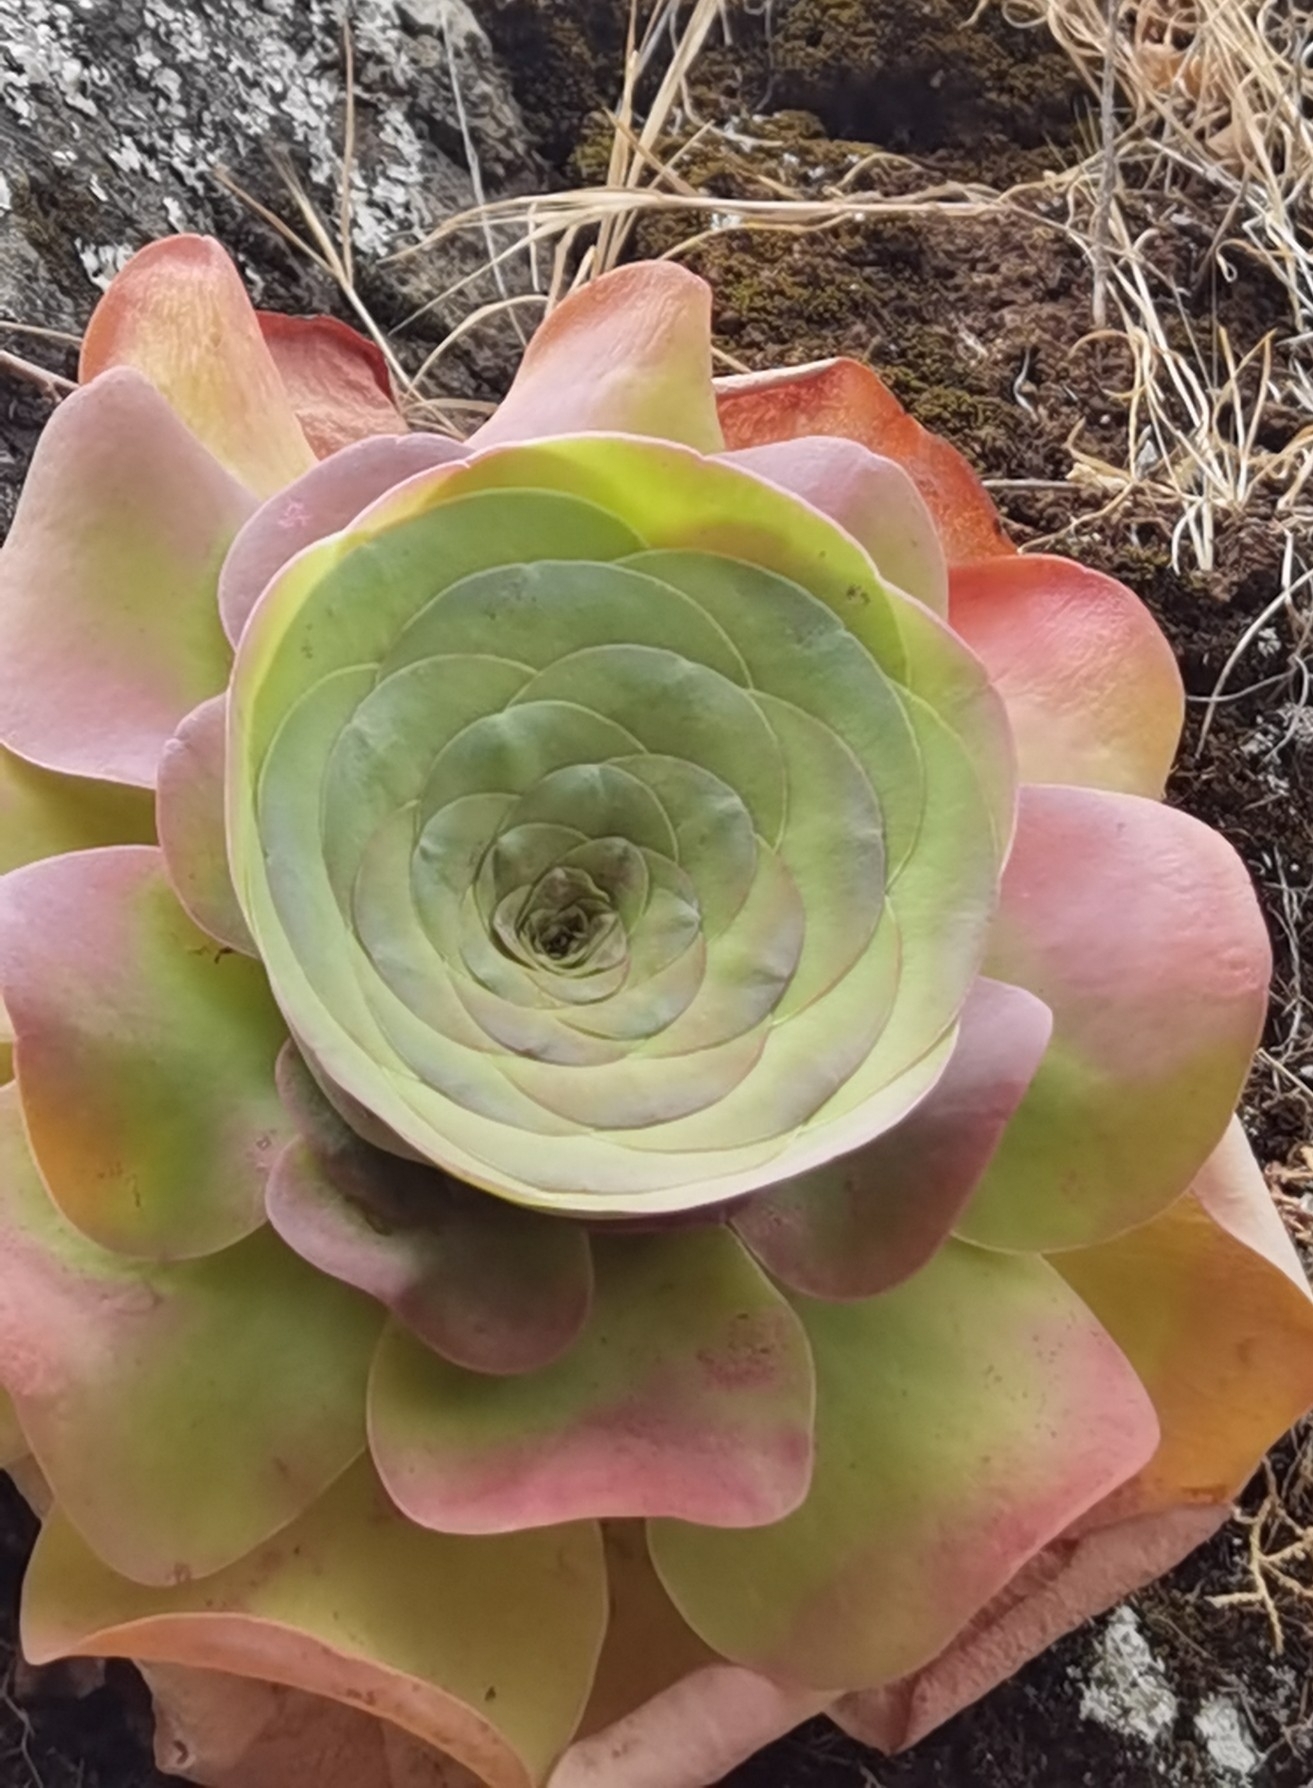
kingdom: Plantae
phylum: Tracheophyta
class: Magnoliopsida
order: Saxifragales
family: Crassulaceae
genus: Aeonium
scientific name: Aeonium diplocyclum
